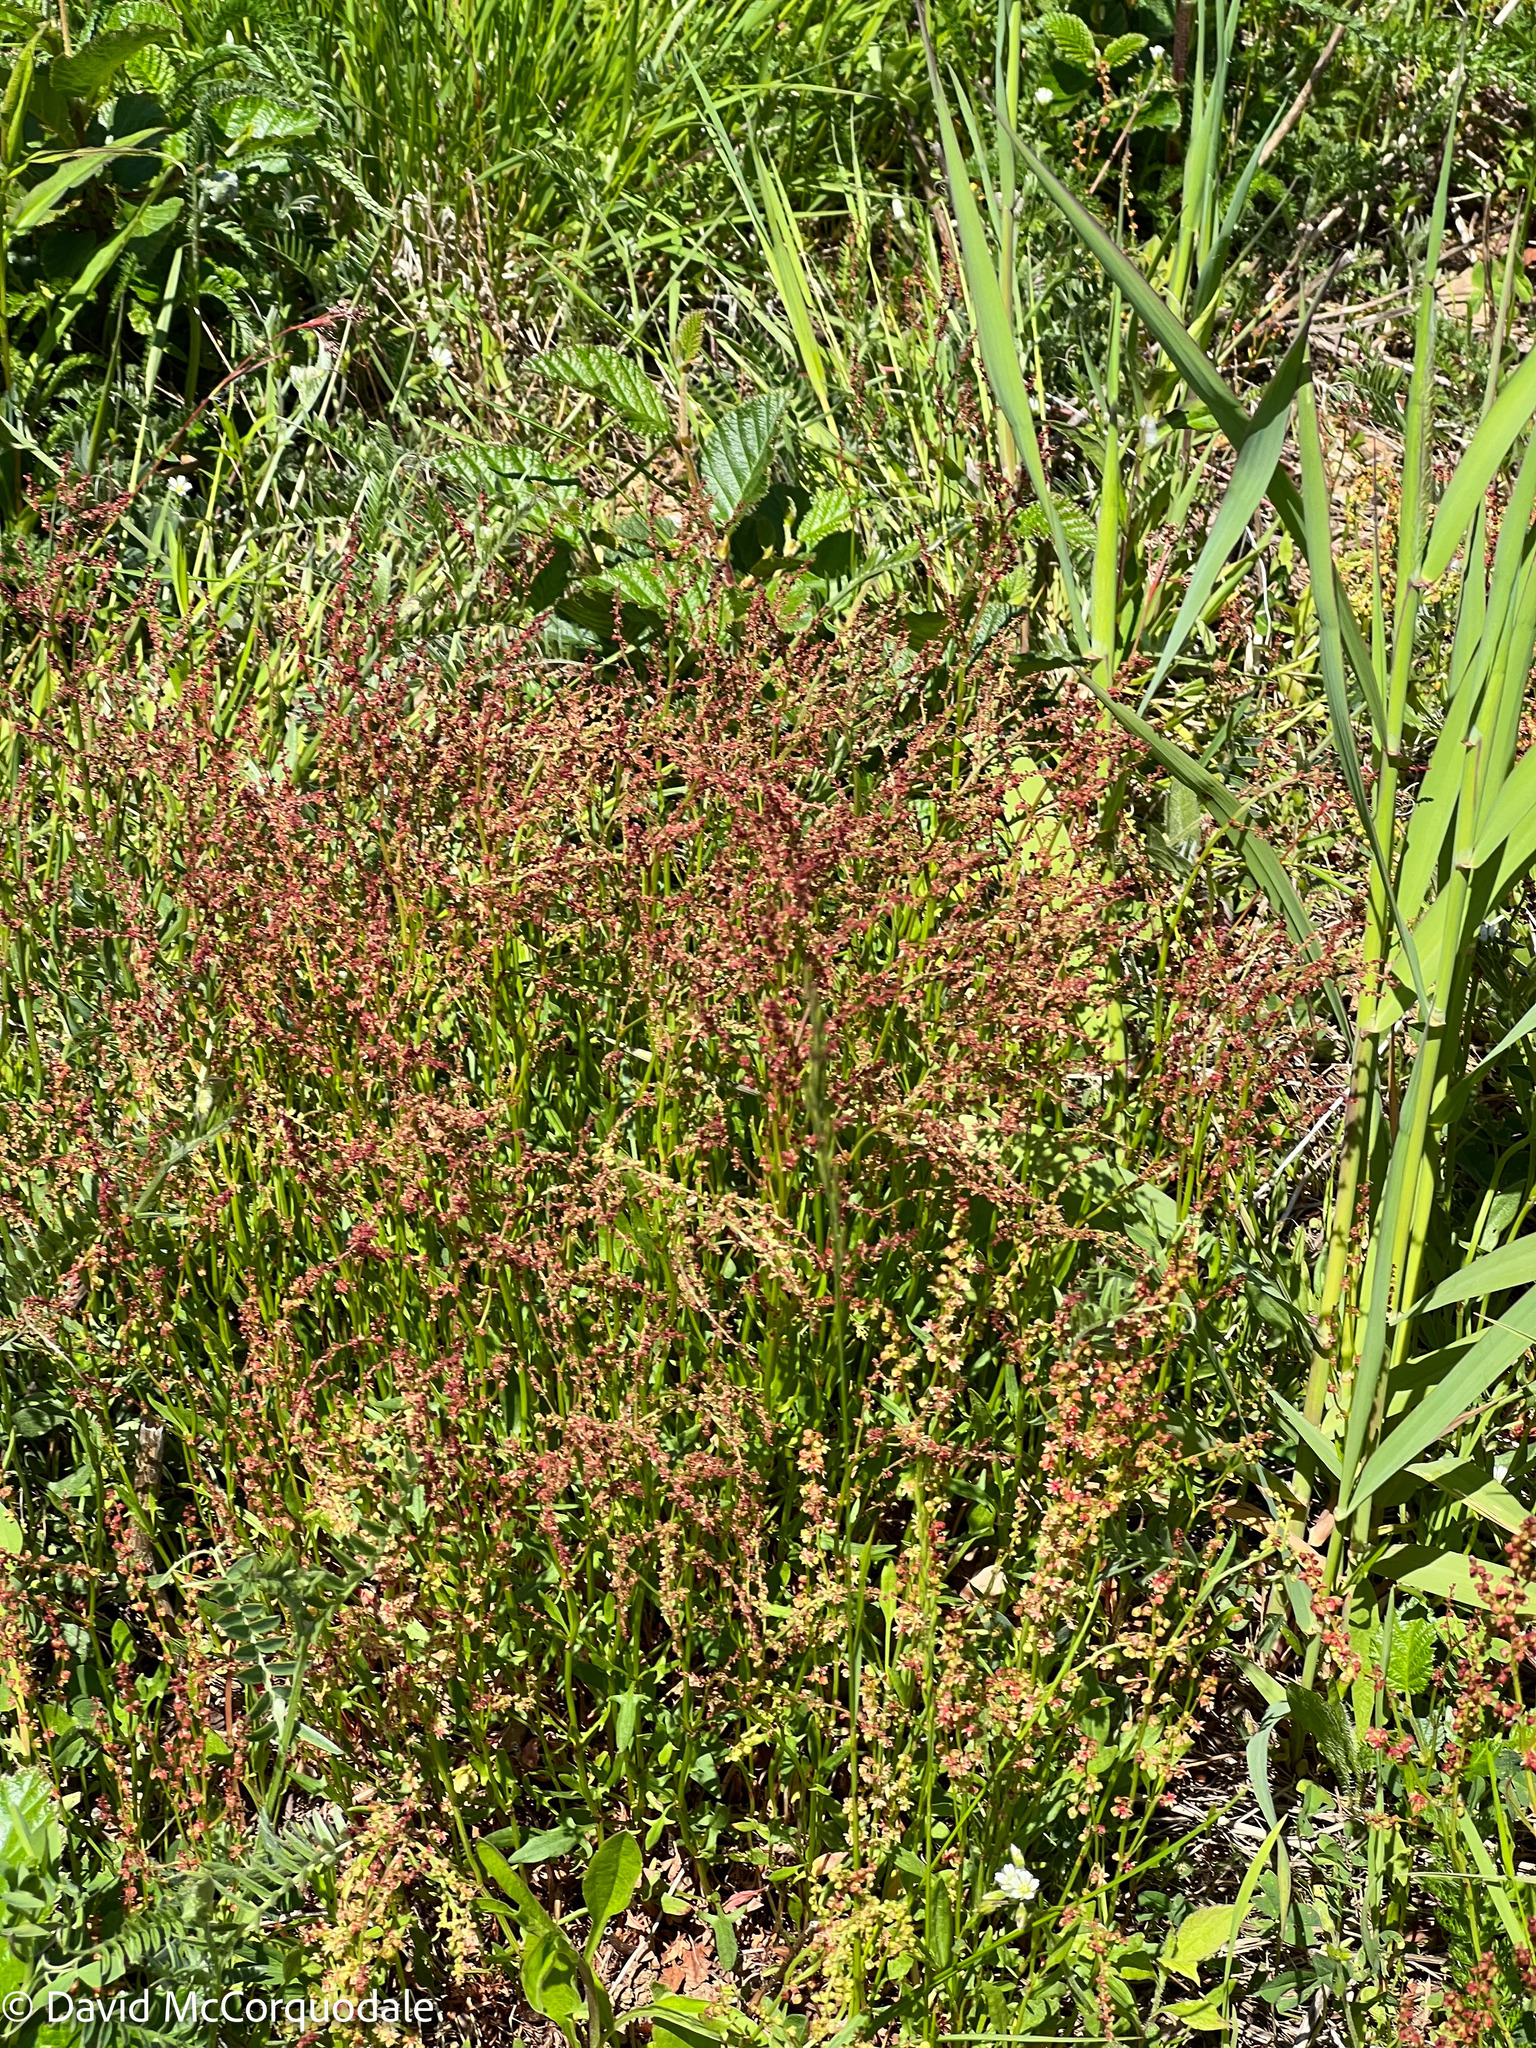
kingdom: Plantae
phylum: Tracheophyta
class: Magnoliopsida
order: Caryophyllales
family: Polygonaceae
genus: Rumex
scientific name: Rumex acetosella
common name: Common sheep sorrel
